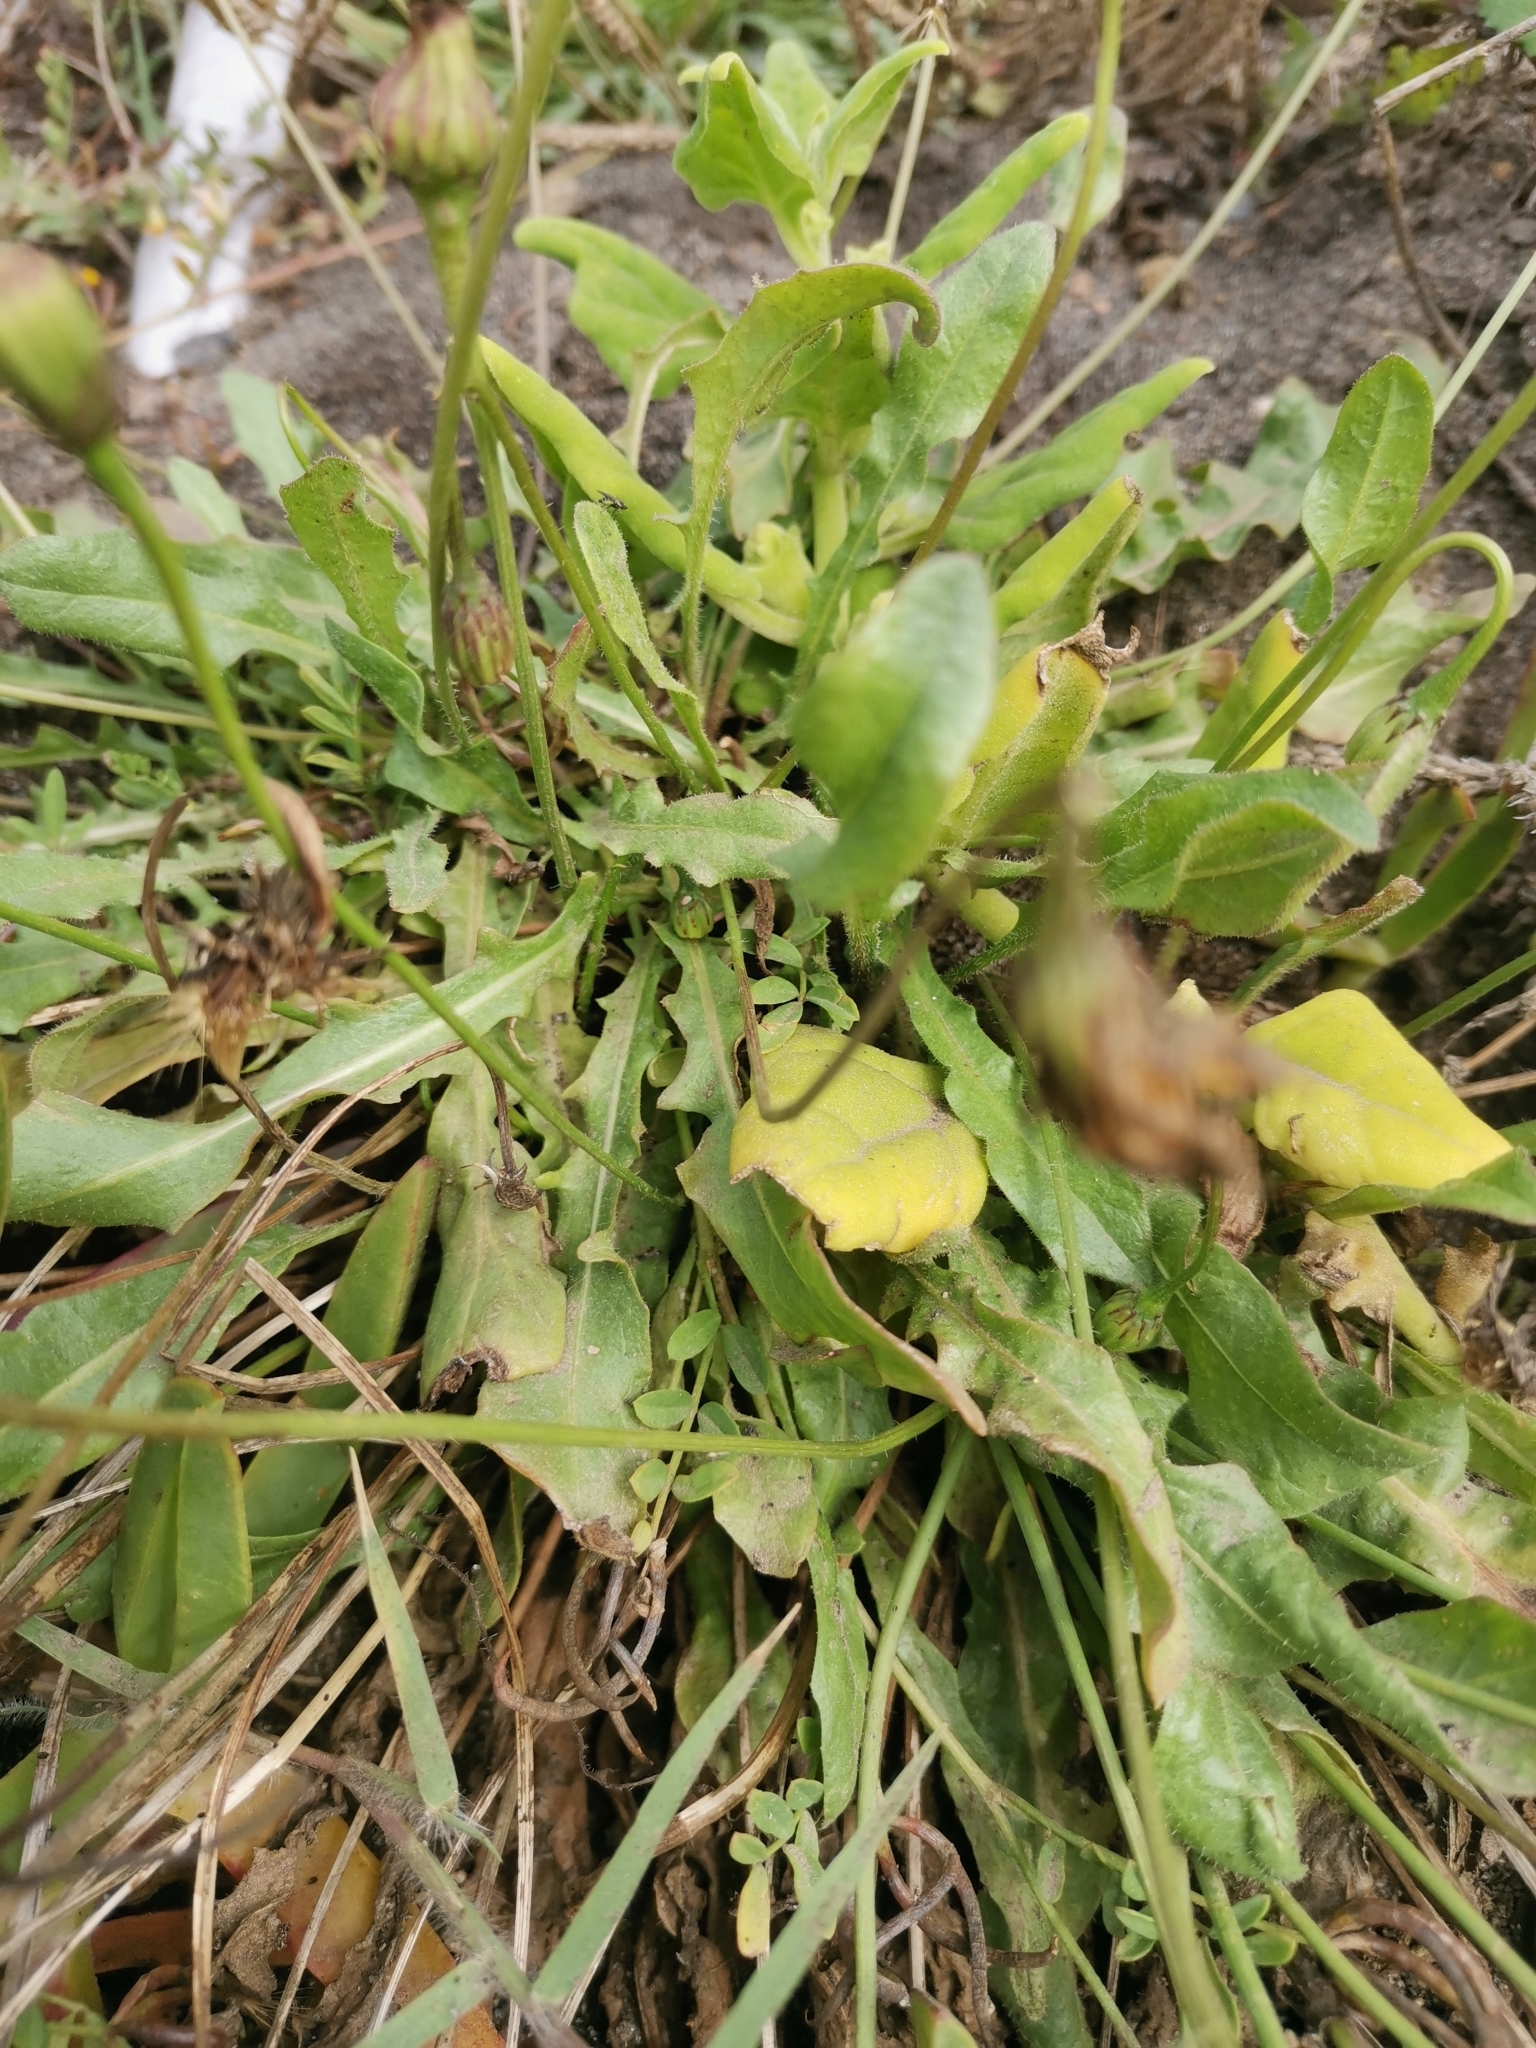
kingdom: Plantae
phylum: Tracheophyta
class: Magnoliopsida
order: Asterales
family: Asteraceae
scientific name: Asteraceae
